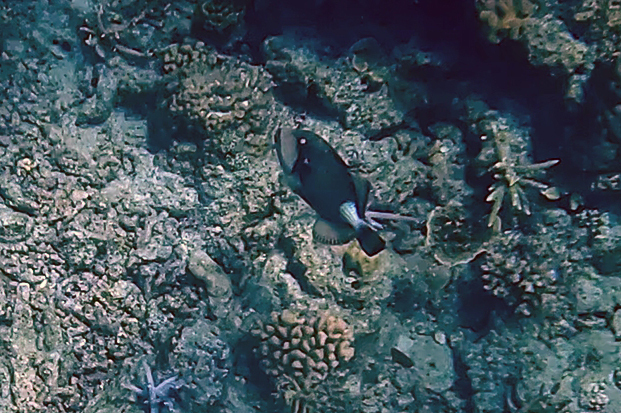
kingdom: Animalia
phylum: Chordata
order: Tetraodontiformes
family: Balistidae
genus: Balistoides
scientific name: Balistoides viridescens
